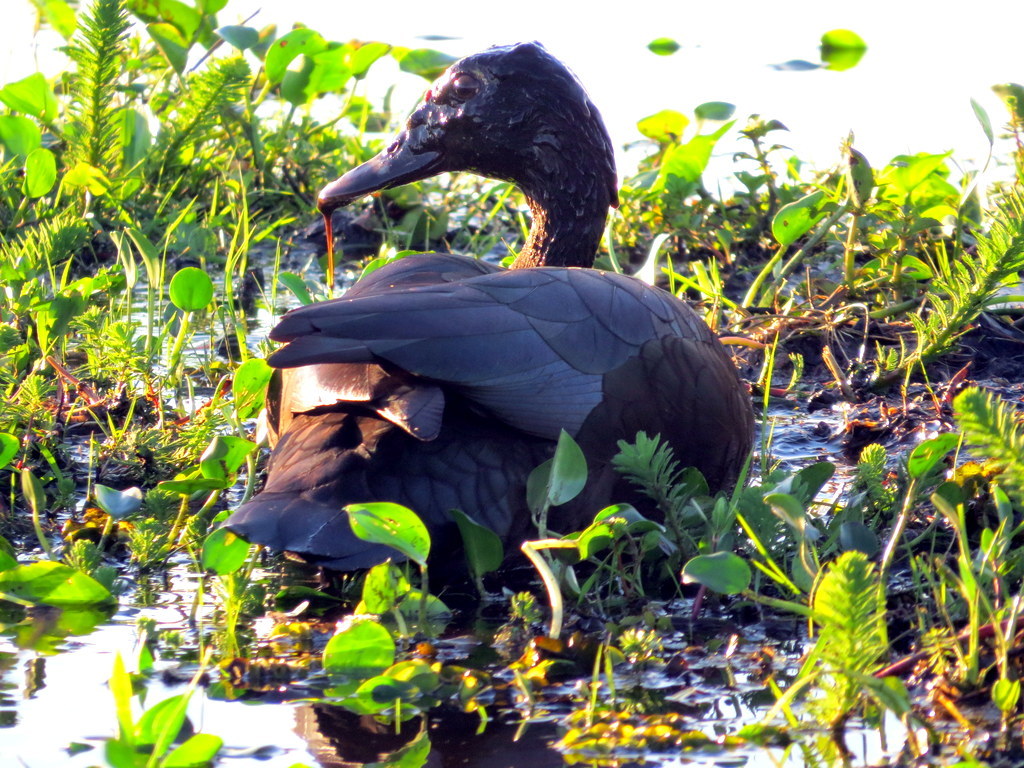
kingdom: Animalia
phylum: Chordata
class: Aves
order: Anseriformes
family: Anatidae
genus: Cairina
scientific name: Cairina moschata
